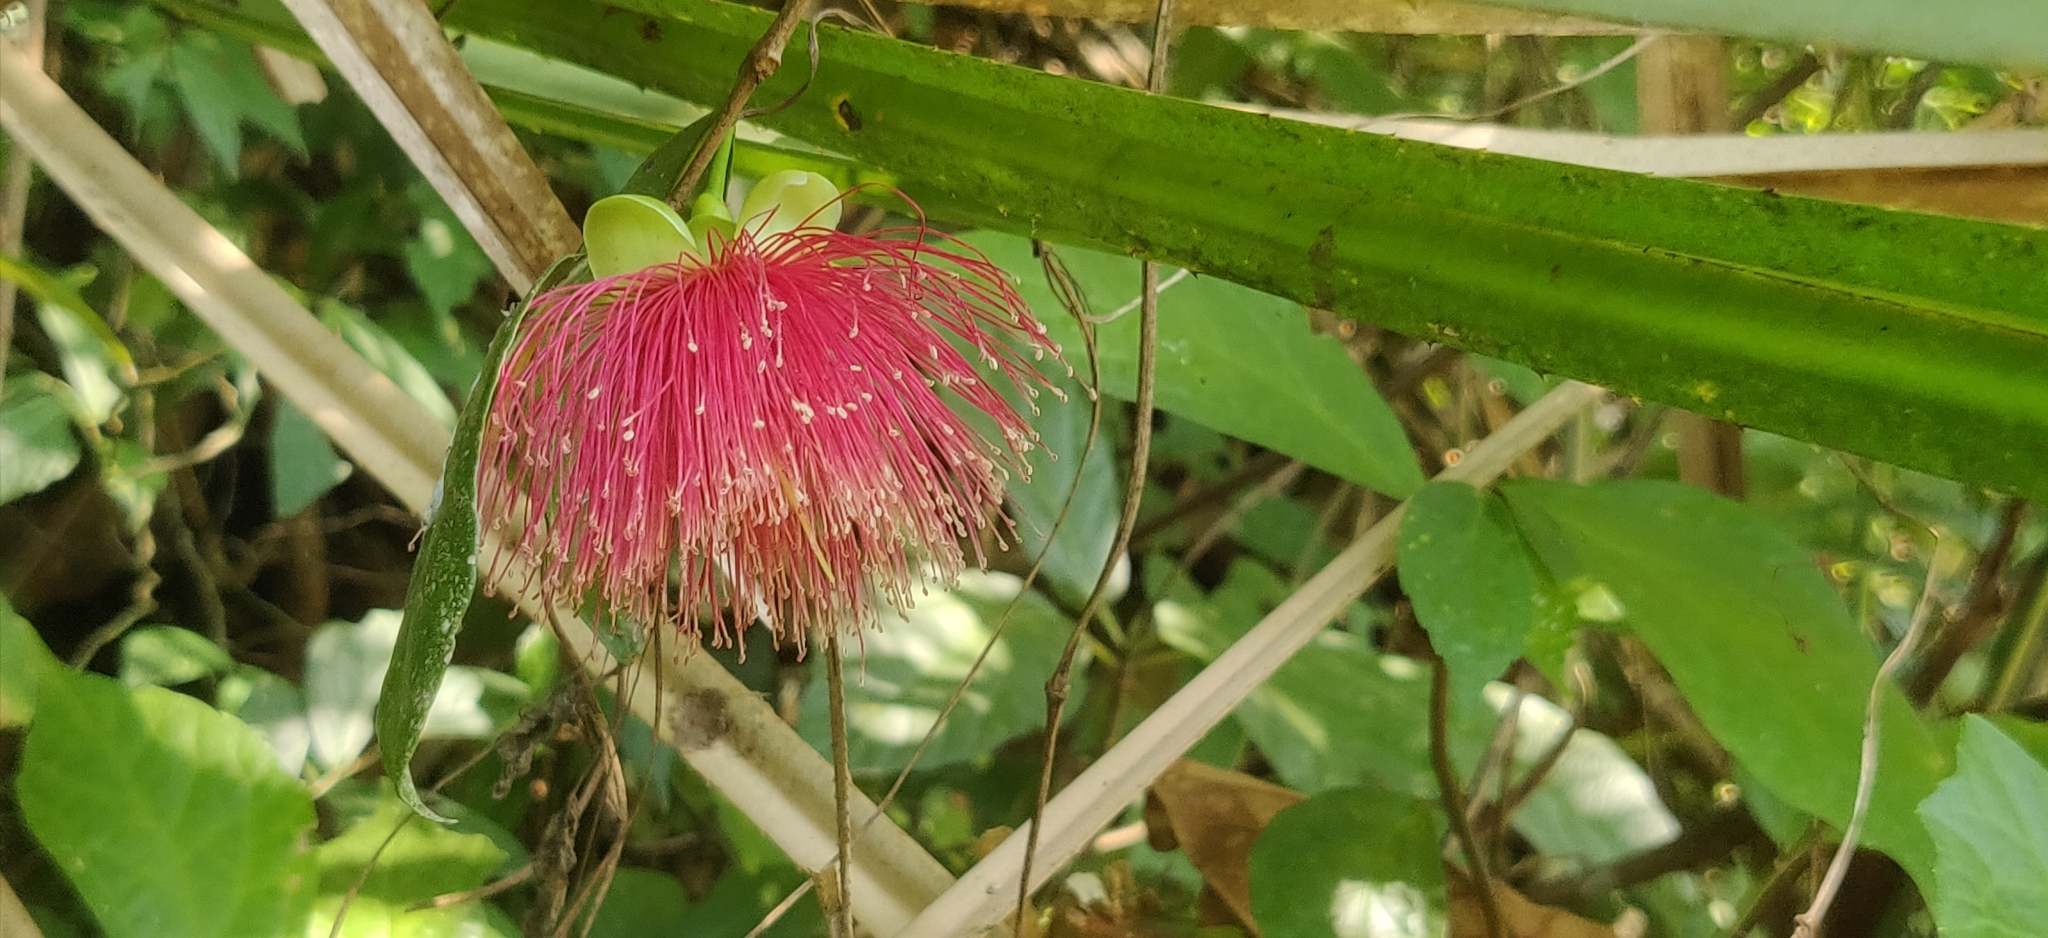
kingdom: Plantae
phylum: Tracheophyta
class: Magnoliopsida
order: Myrtales
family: Myrtaceae
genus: Syzygium
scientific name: Syzygium laetum
